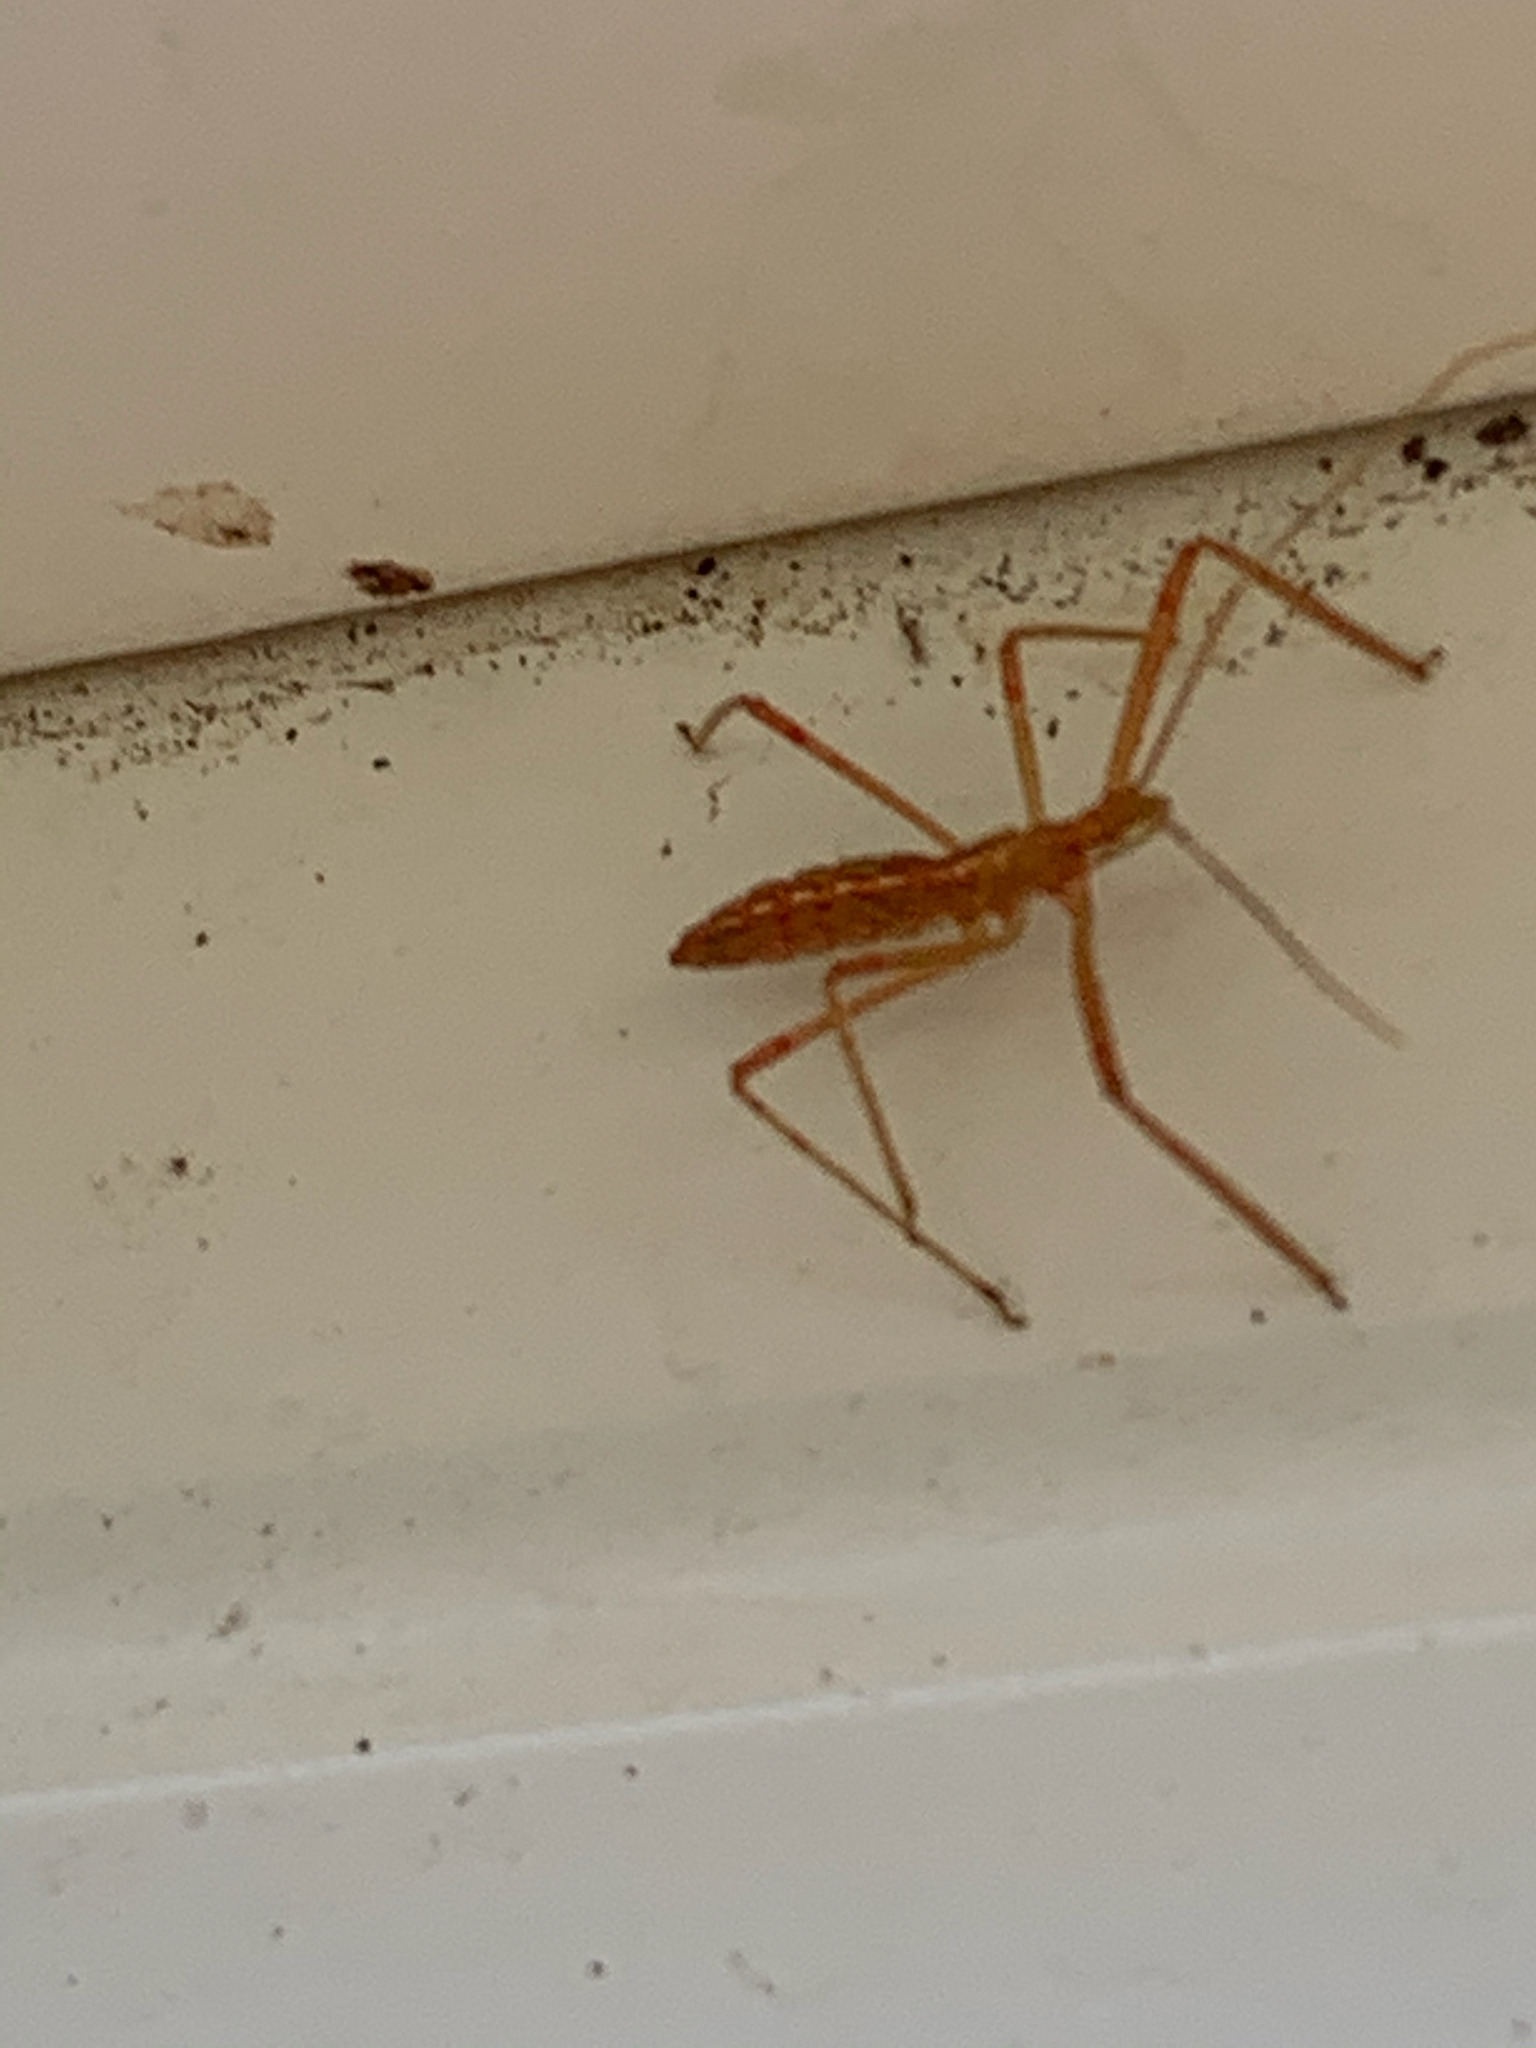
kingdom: Animalia
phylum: Arthropoda
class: Insecta
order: Hemiptera
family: Reduviidae
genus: Zelus
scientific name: Zelus luridus
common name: Pale green assassin bug
